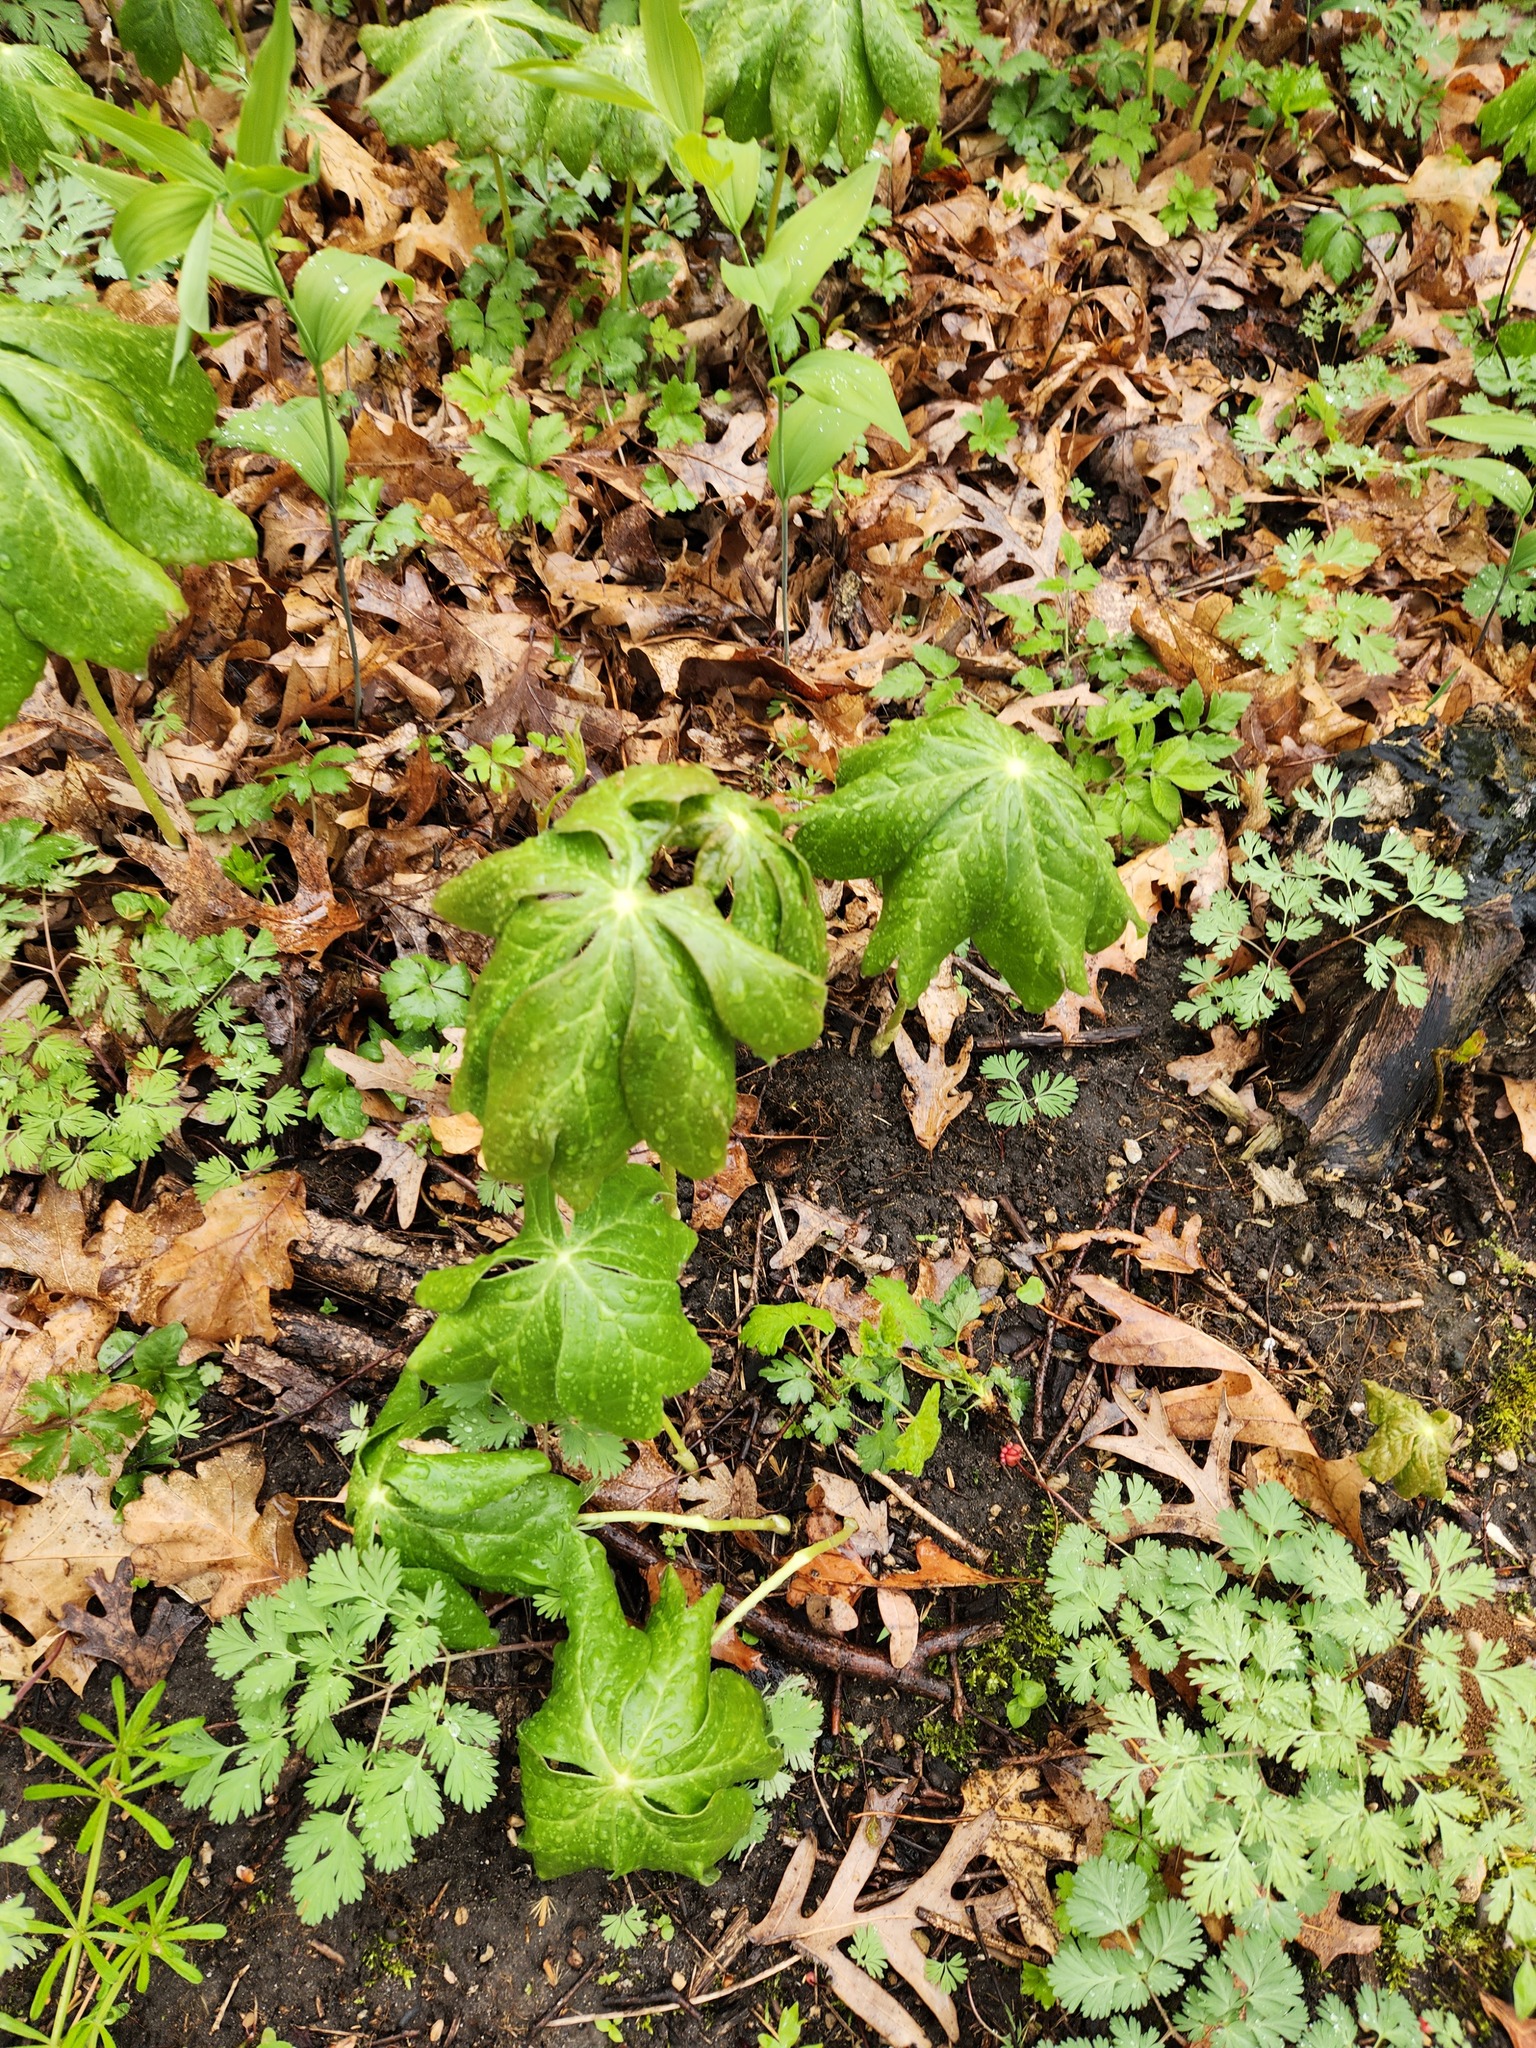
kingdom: Plantae
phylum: Tracheophyta
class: Magnoliopsida
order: Ranunculales
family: Berberidaceae
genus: Podophyllum
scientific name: Podophyllum peltatum
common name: Wild mandrake
